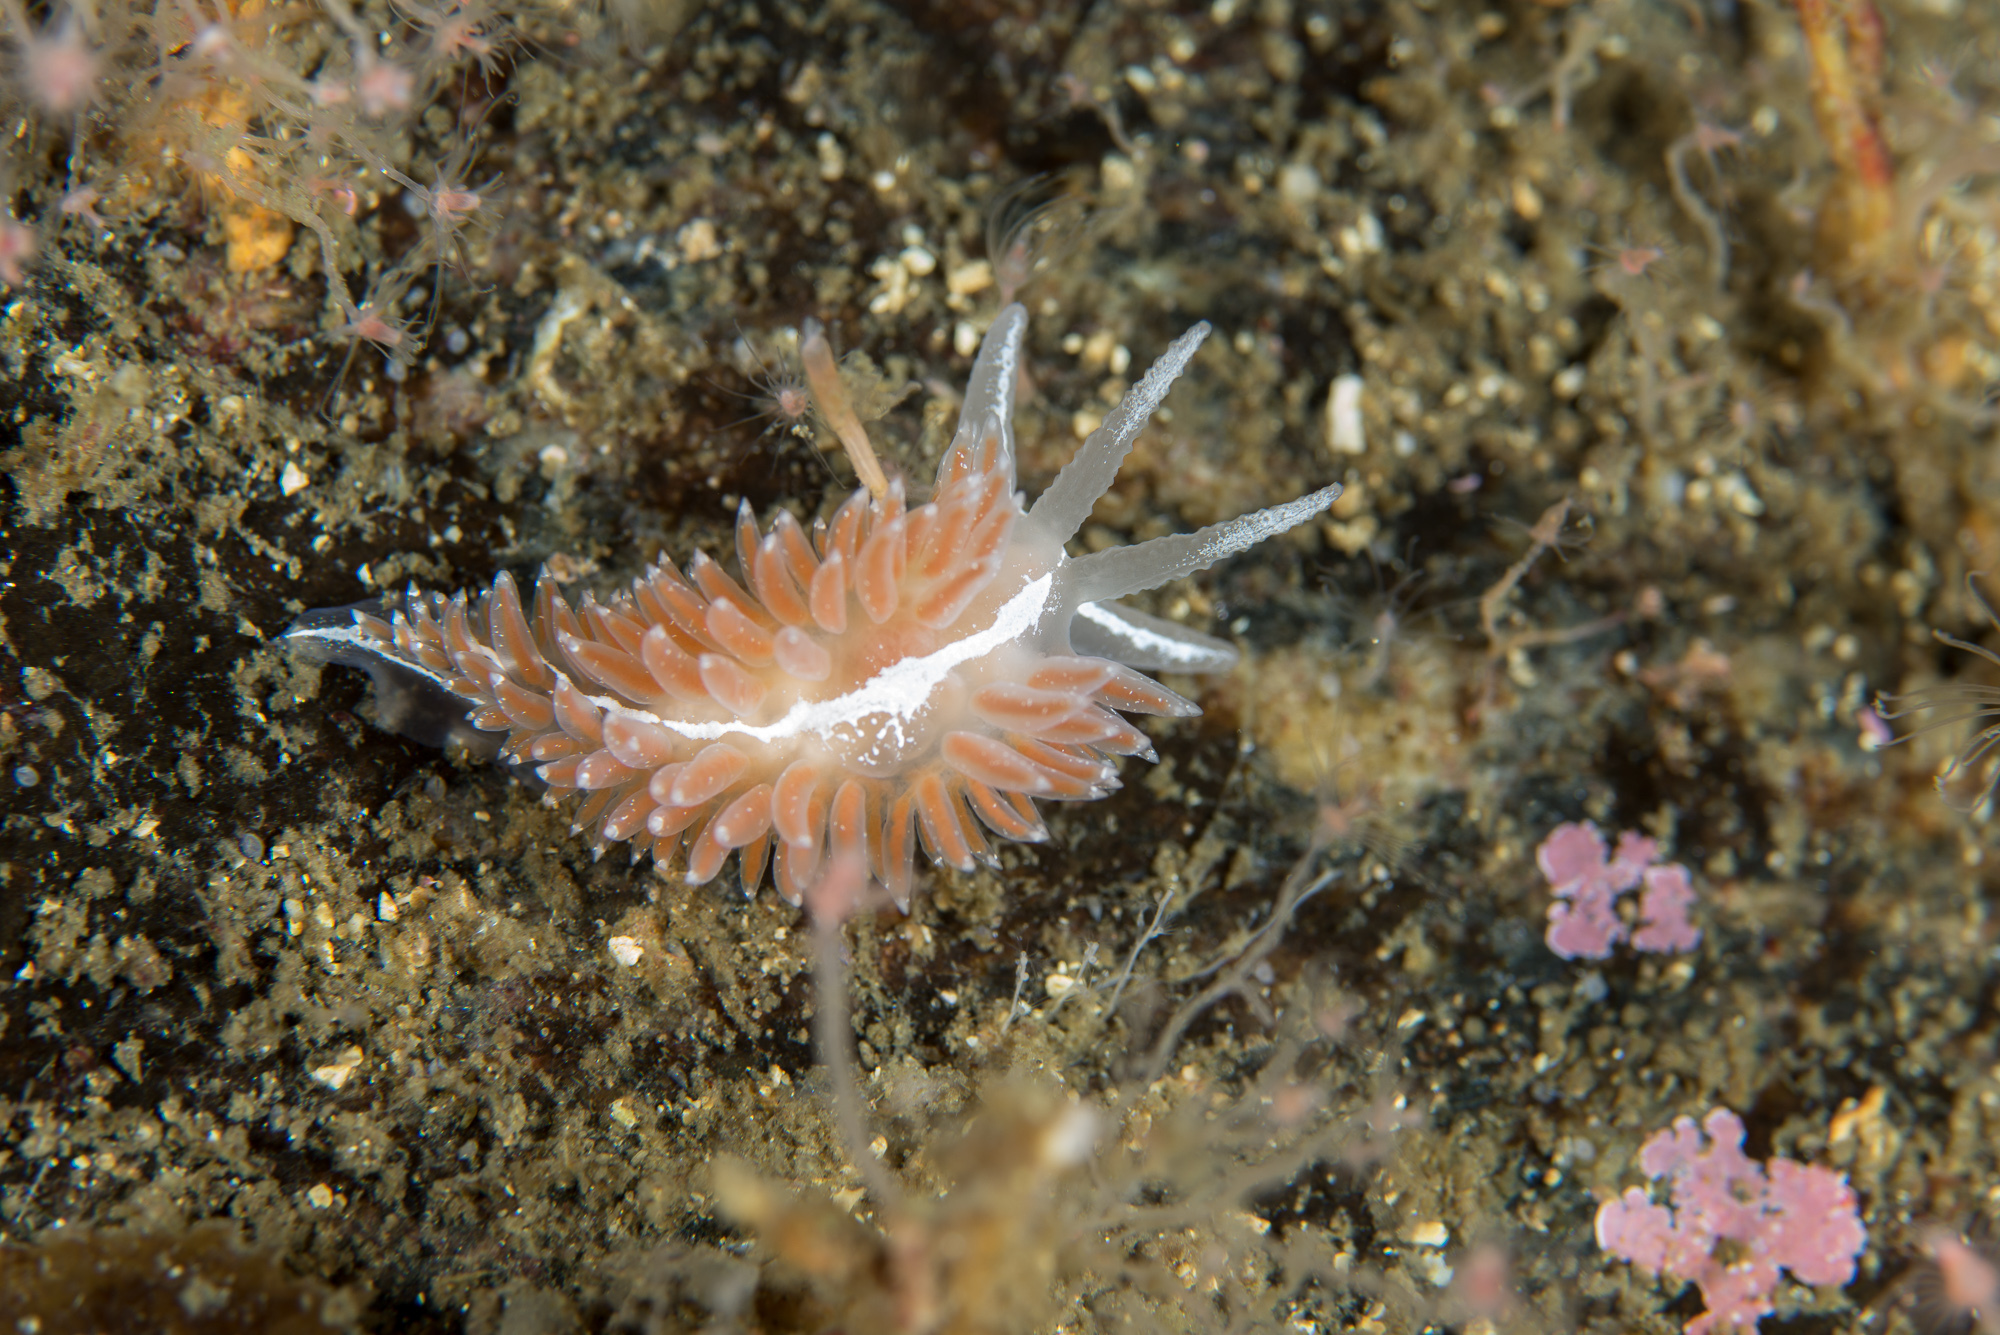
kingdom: Animalia
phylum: Mollusca
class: Gastropoda
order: Nudibranchia
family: Coryphellidae
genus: Coryphella
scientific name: Coryphella orjani
